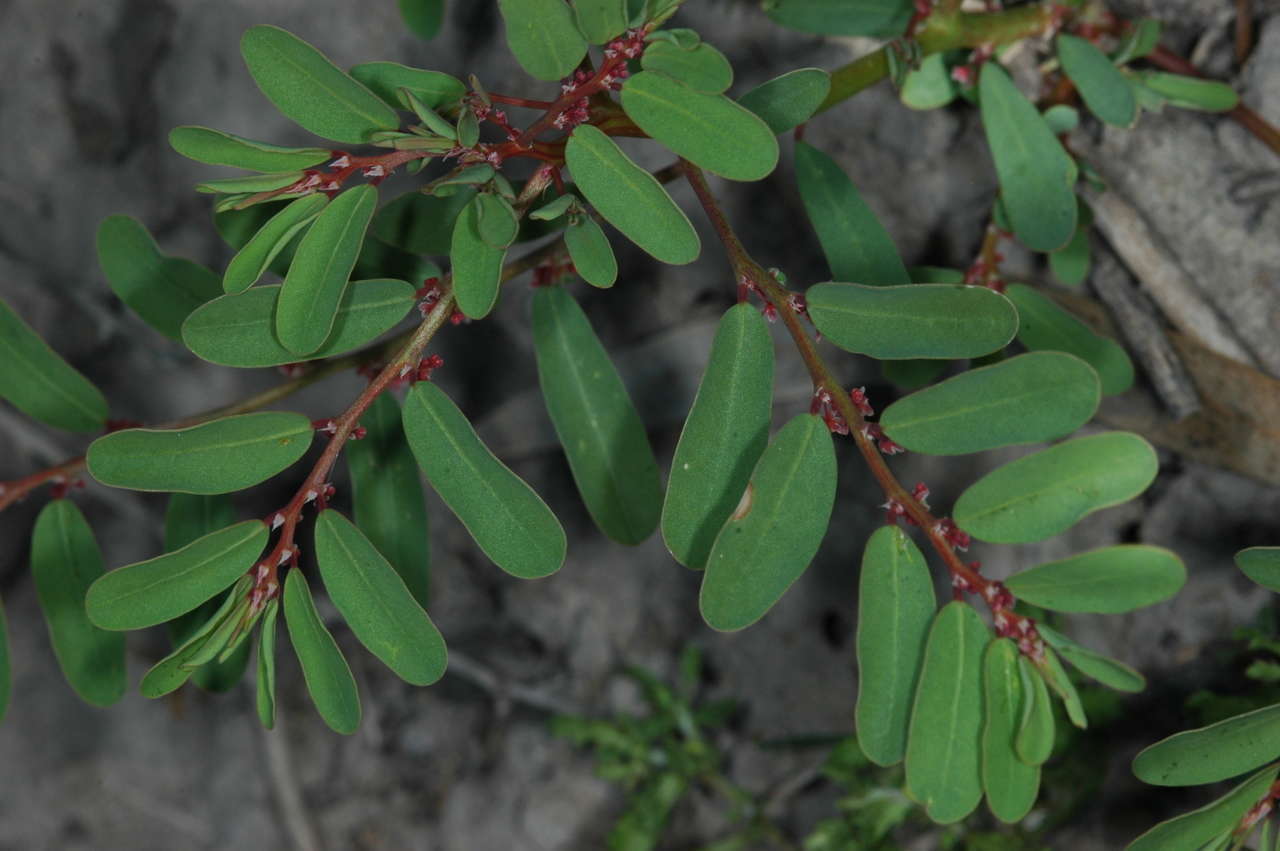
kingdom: Plantae
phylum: Tracheophyta
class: Magnoliopsida
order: Malpighiales
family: Phyllanthaceae
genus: Phyllanthus
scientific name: Phyllanthus lacunarius
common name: Caraweena-clover
